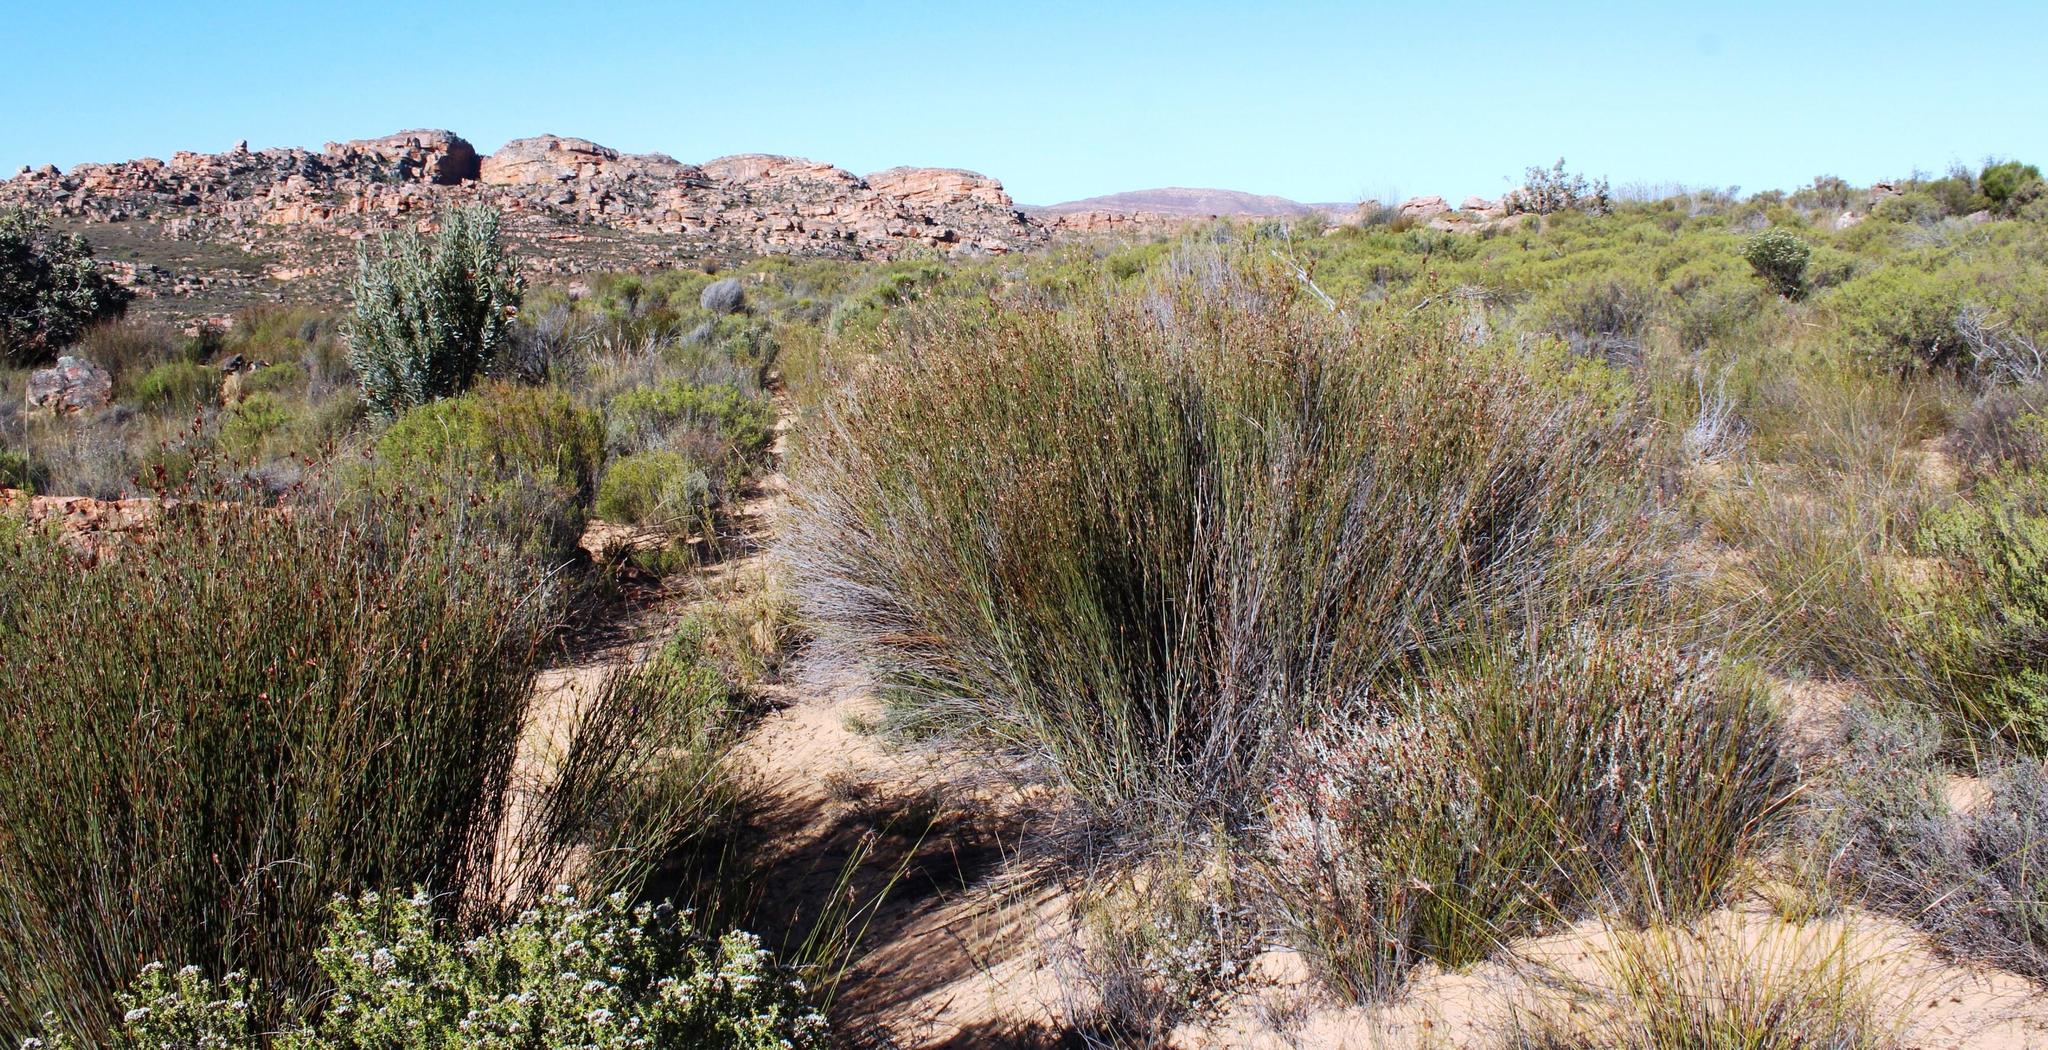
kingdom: Plantae
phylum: Tracheophyta
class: Liliopsida
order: Poales
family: Restionaceae
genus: Willdenowia
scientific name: Willdenowia incurvata
